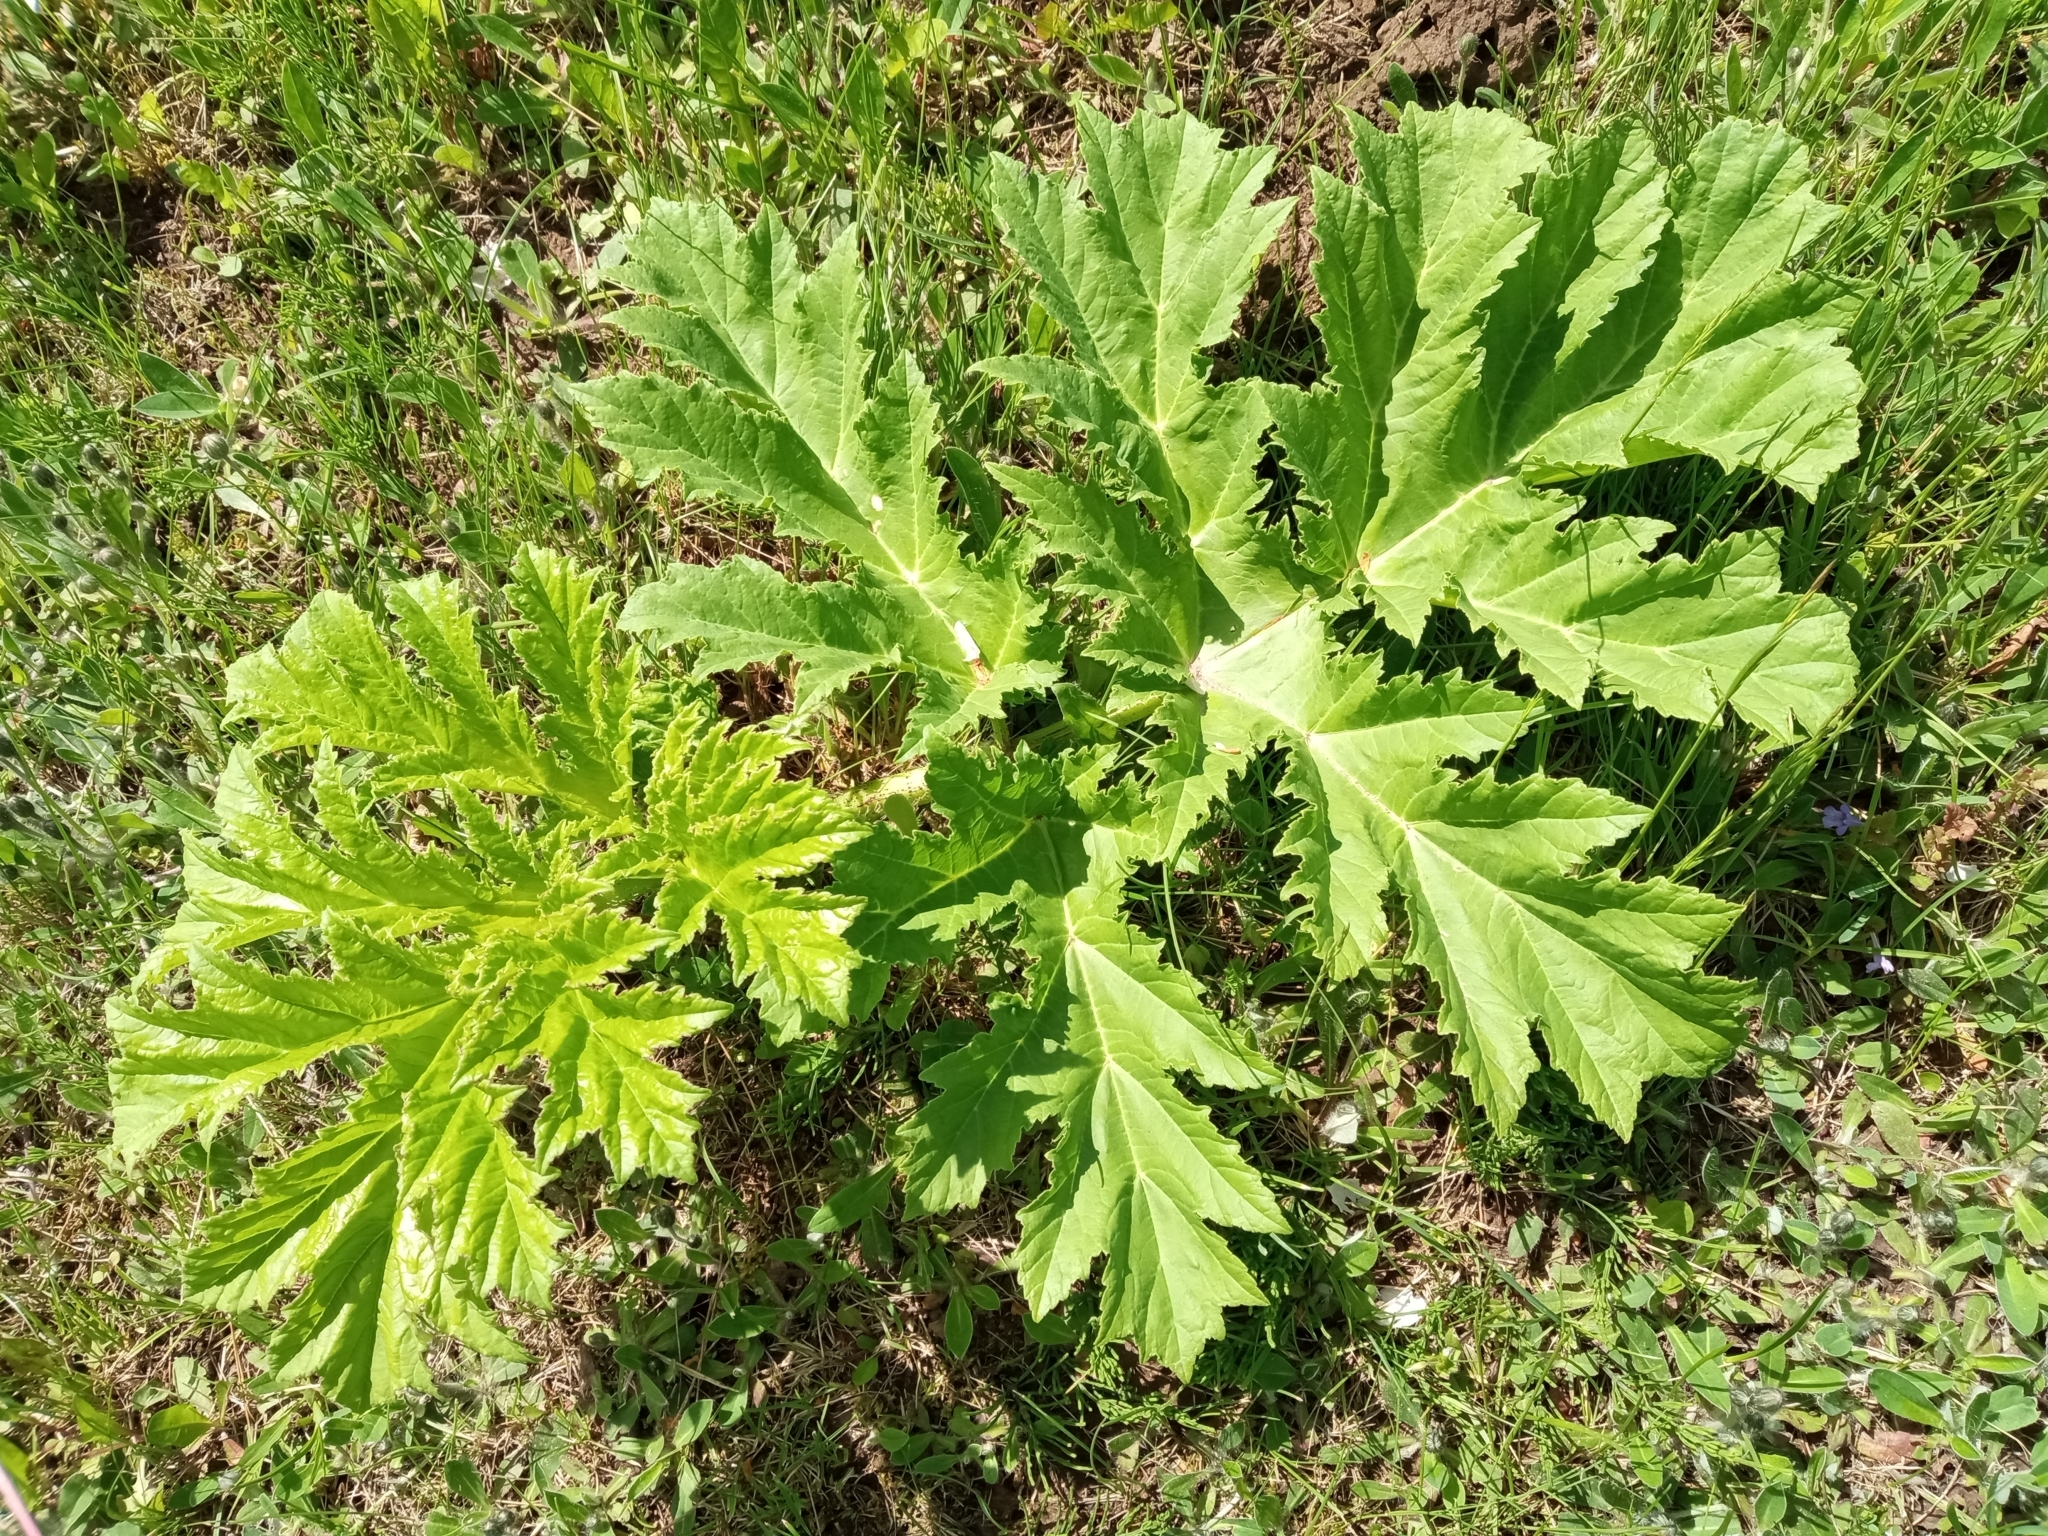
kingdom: Plantae
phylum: Tracheophyta
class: Magnoliopsida
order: Apiales
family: Apiaceae
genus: Heracleum
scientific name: Heracleum sosnowskyi
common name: Sosnowsky's hogweed
